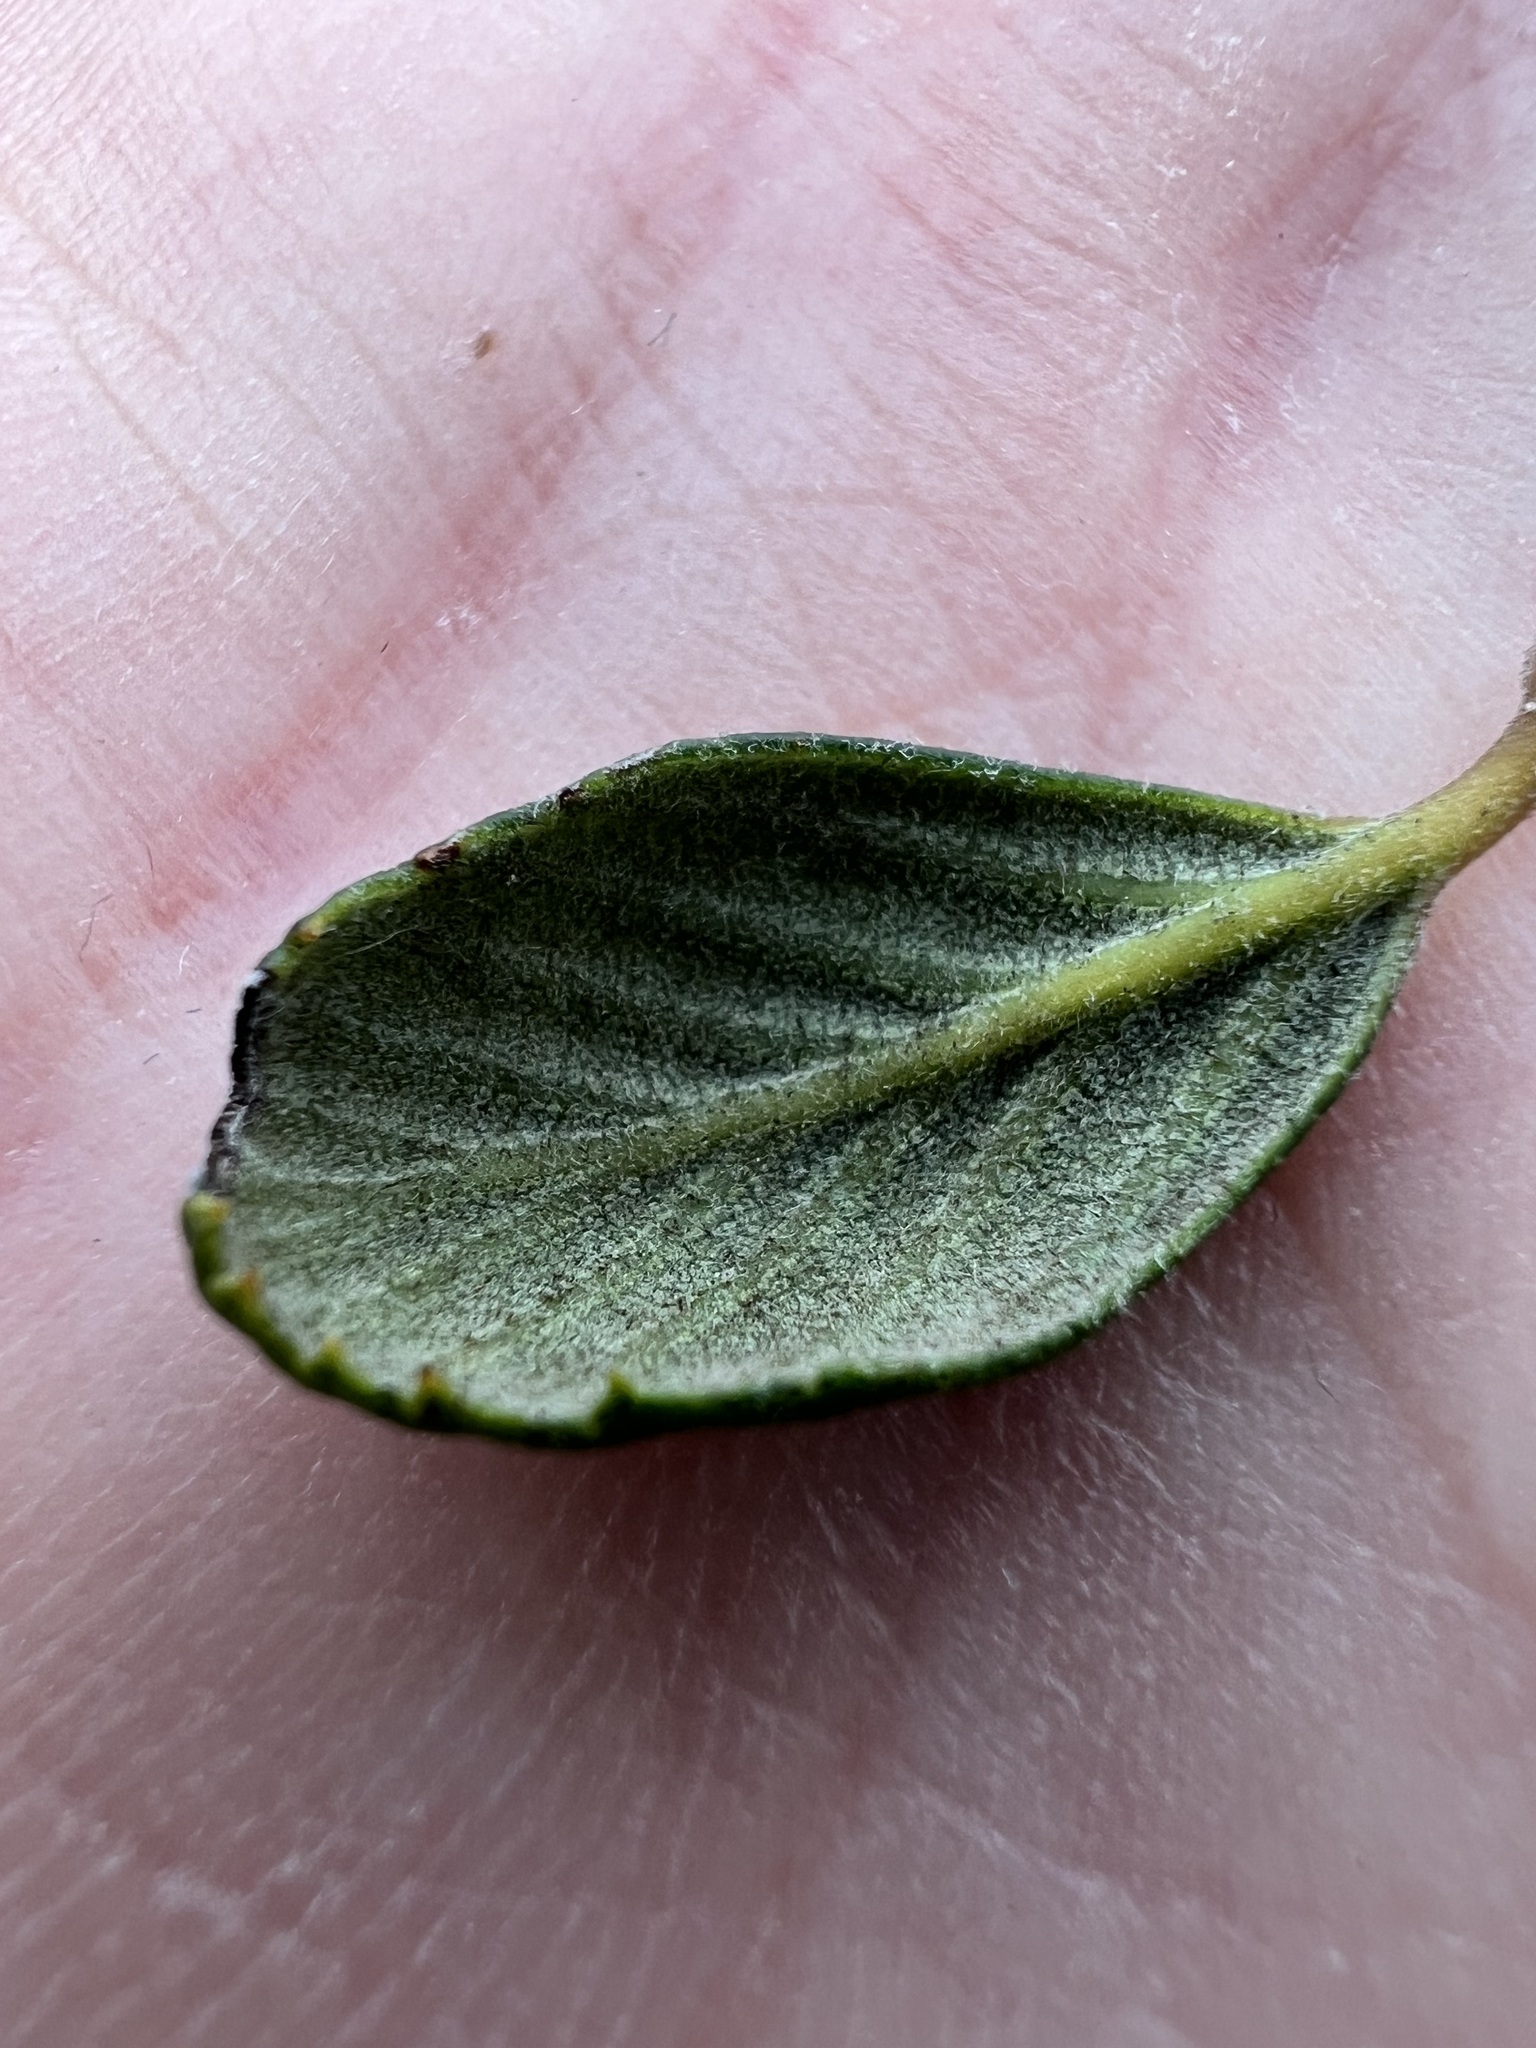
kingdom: Plantae
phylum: Tracheophyta
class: Magnoliopsida
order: Rosales
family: Rosaceae
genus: Cercocarpus
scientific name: Cercocarpus betuloides
